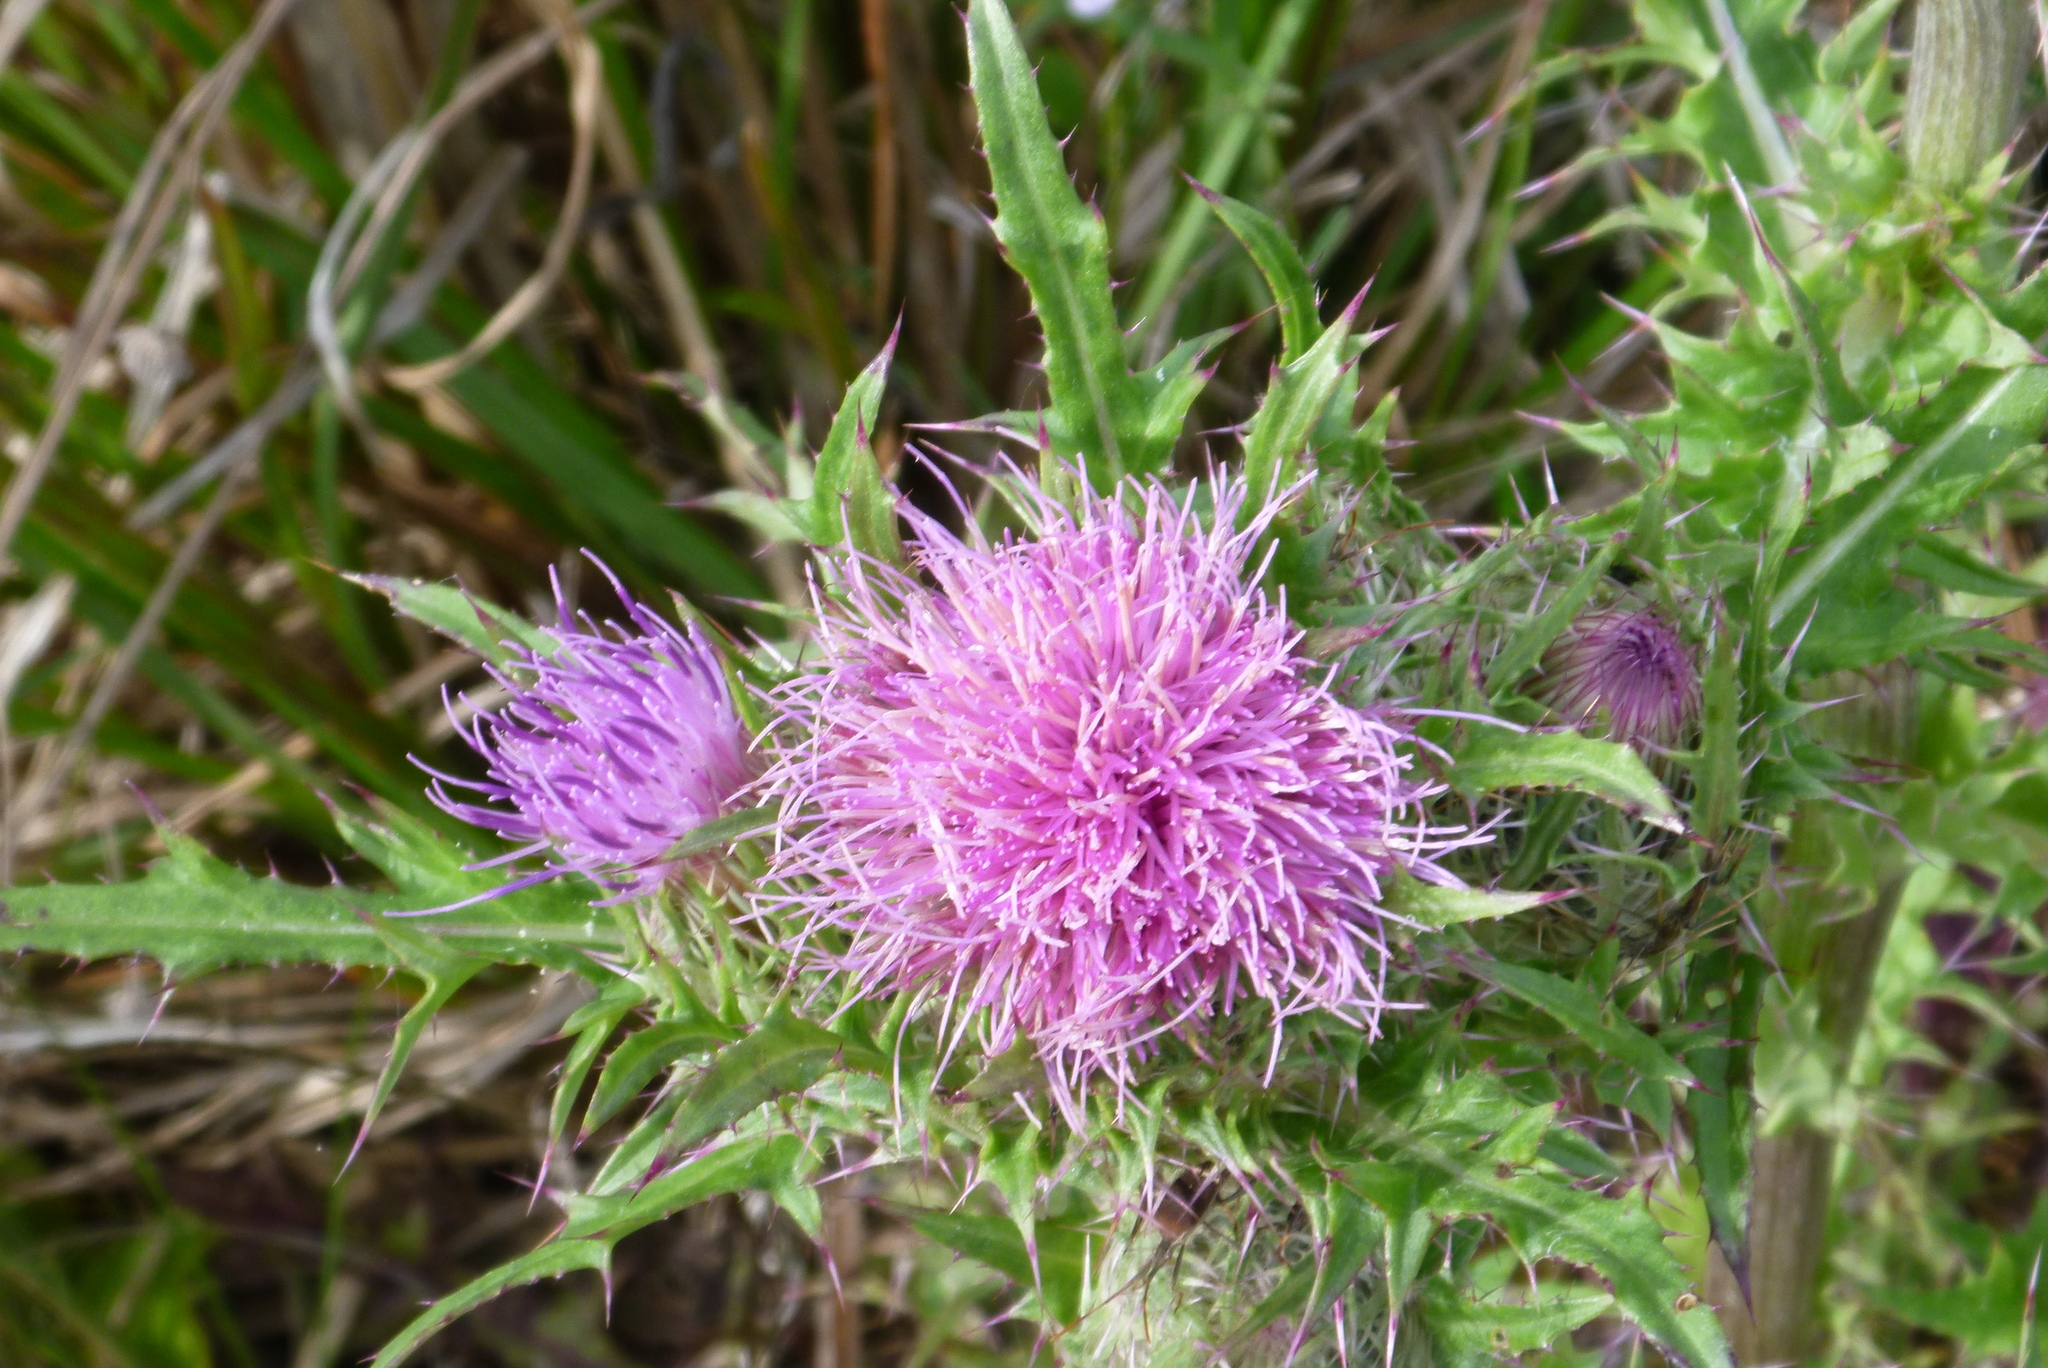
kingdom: Plantae
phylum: Tracheophyta
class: Magnoliopsida
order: Asterales
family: Asteraceae
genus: Cirsium
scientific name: Cirsium horridulum
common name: Bristly thistle
